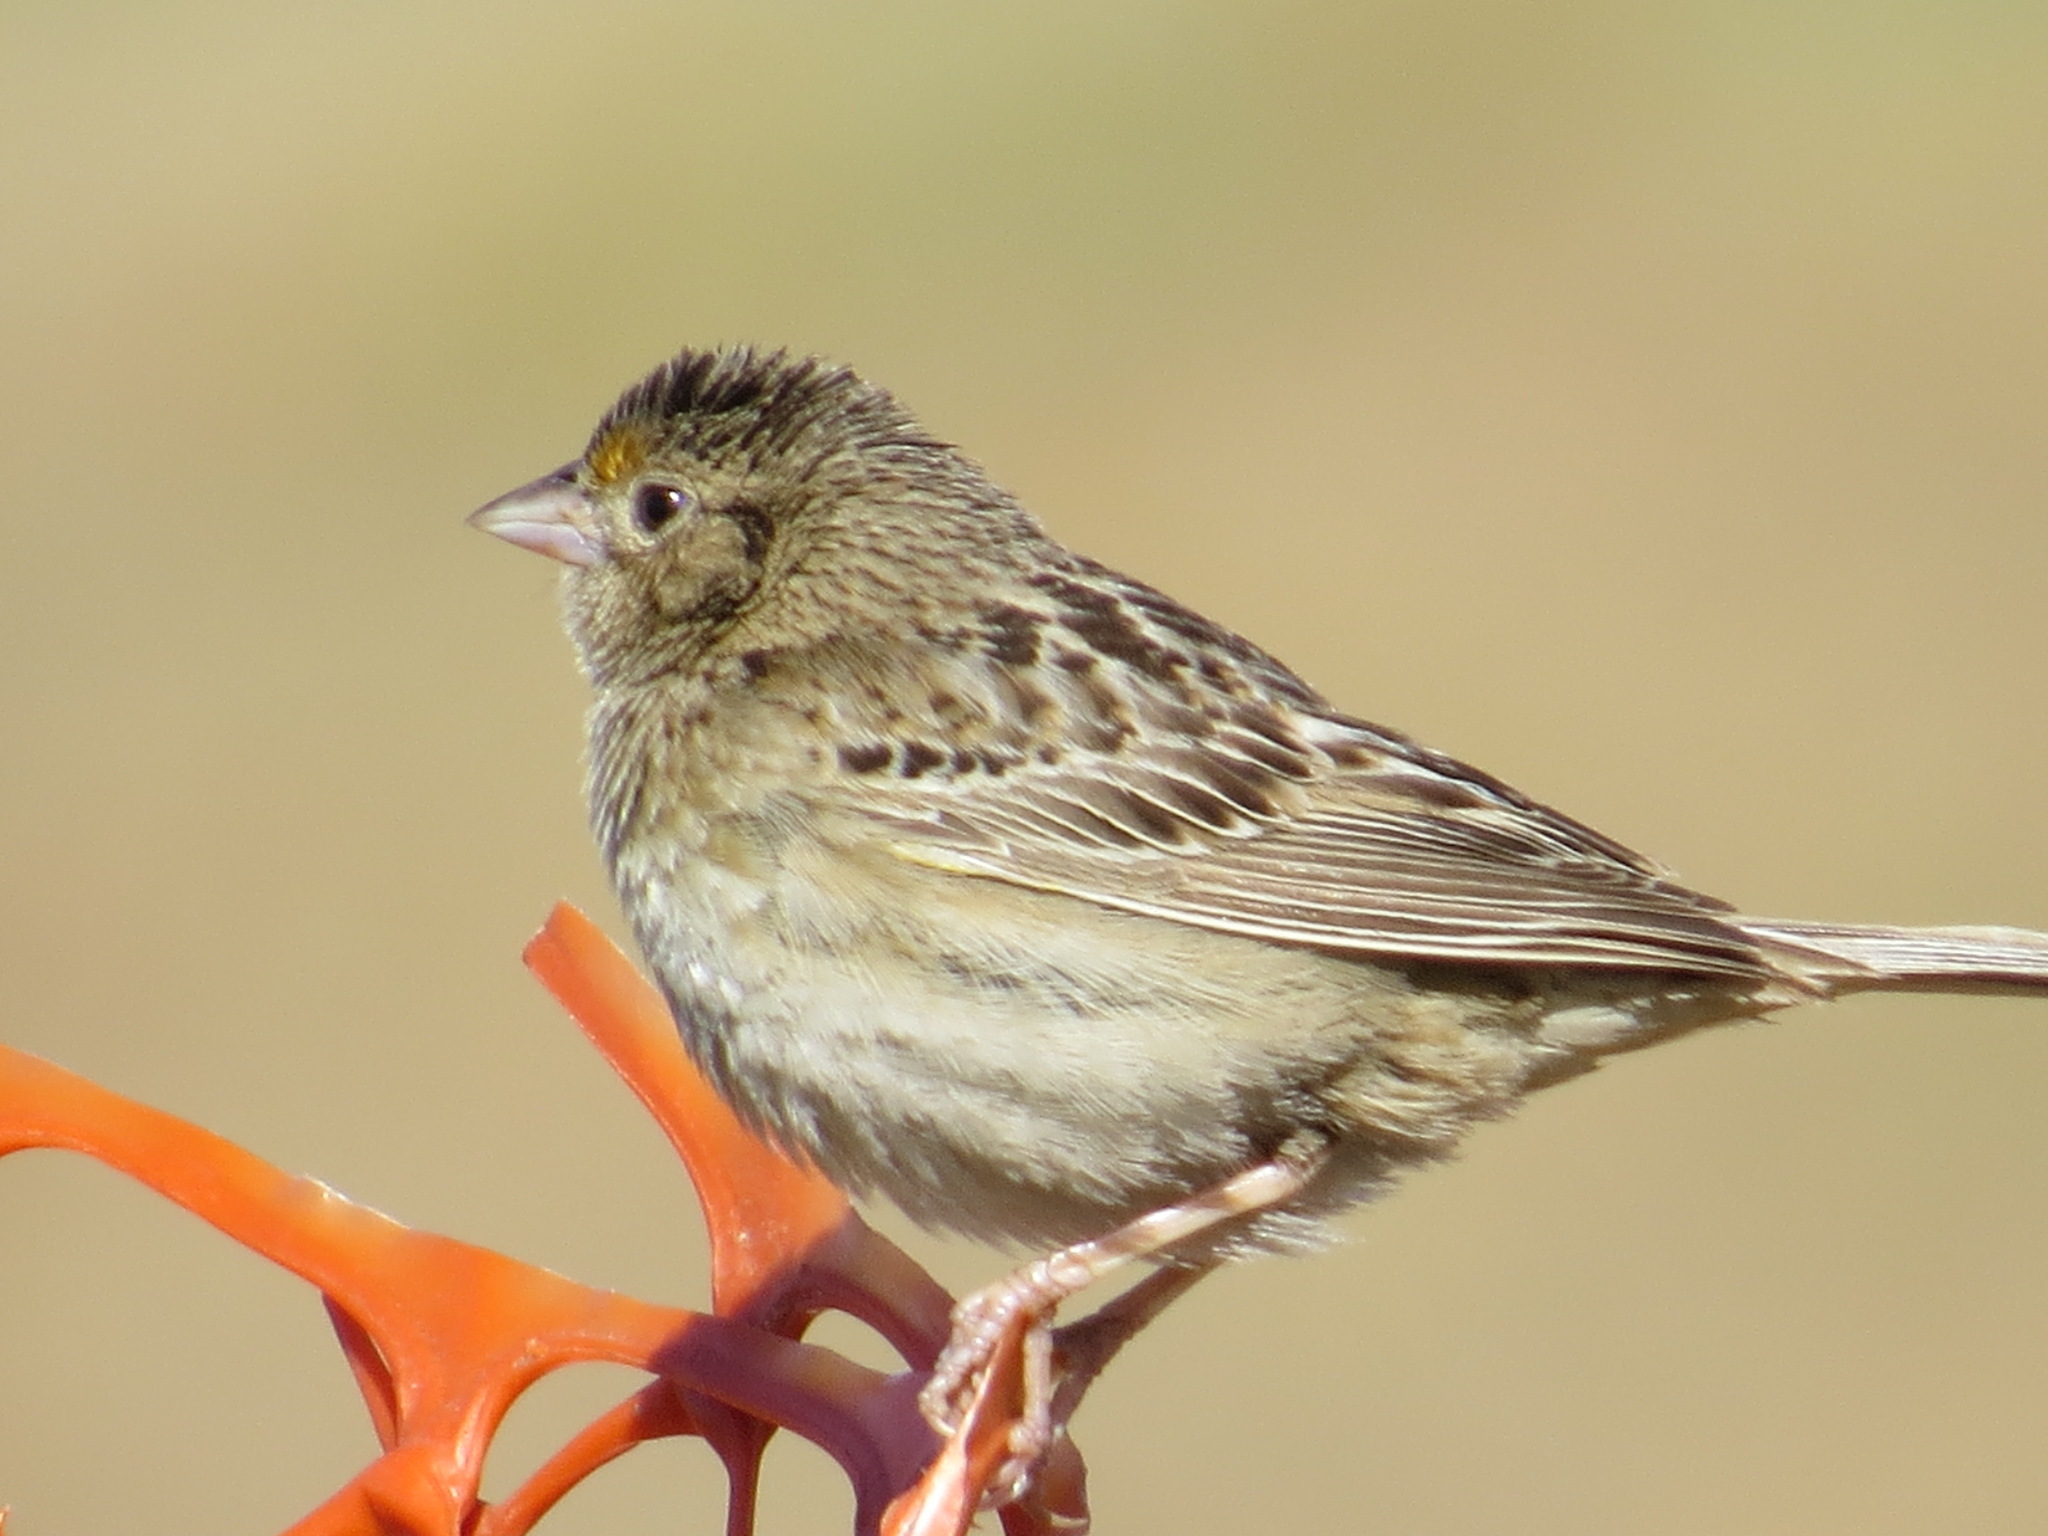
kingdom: Animalia
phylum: Chordata
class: Aves
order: Passeriformes
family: Passerellidae
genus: Ammodramus
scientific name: Ammodramus savannarum
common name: Grasshopper sparrow
